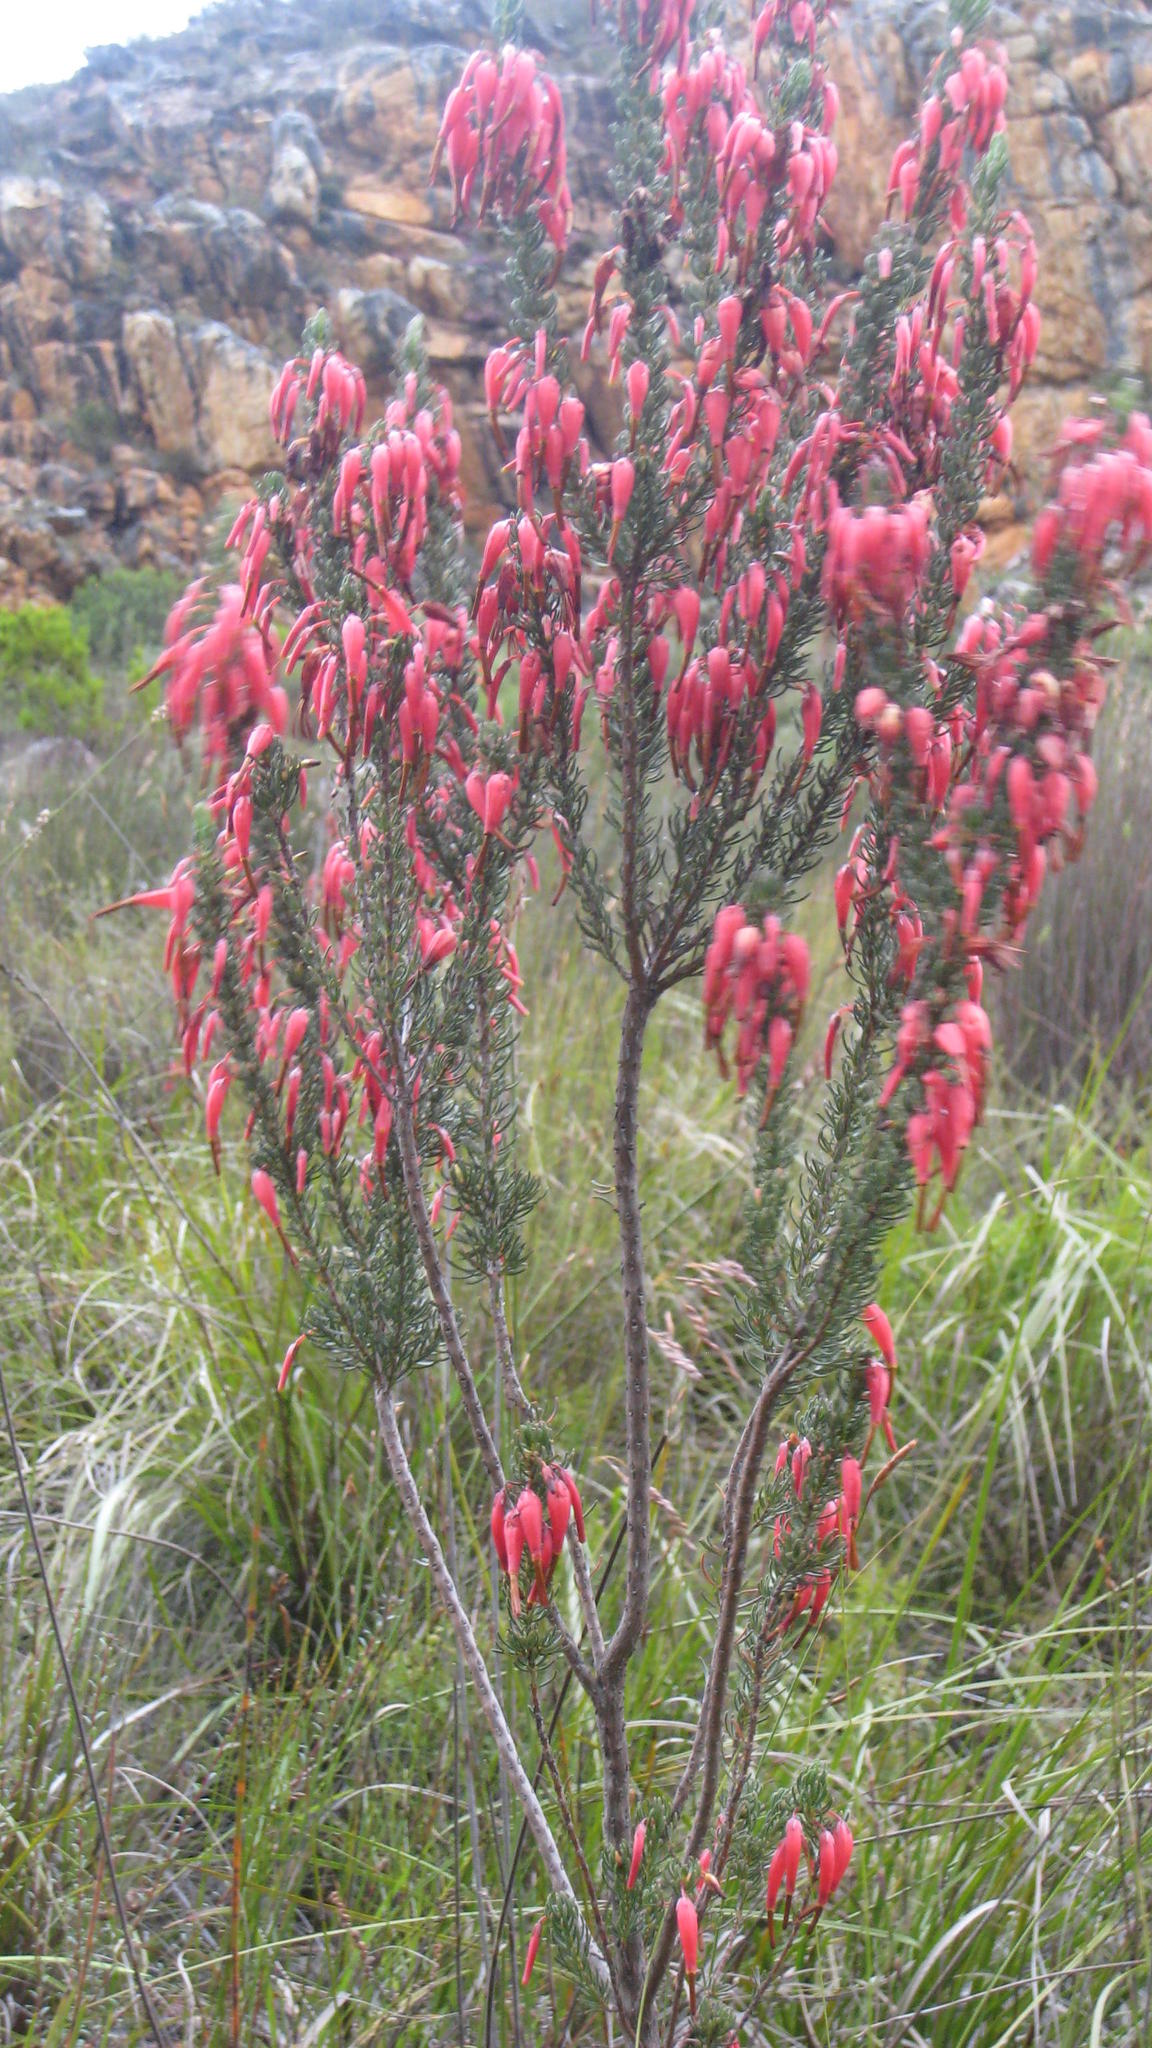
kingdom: Plantae
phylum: Tracheophyta
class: Magnoliopsida
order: Ericales
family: Ericaceae
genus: Erica
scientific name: Erica plukenetii
